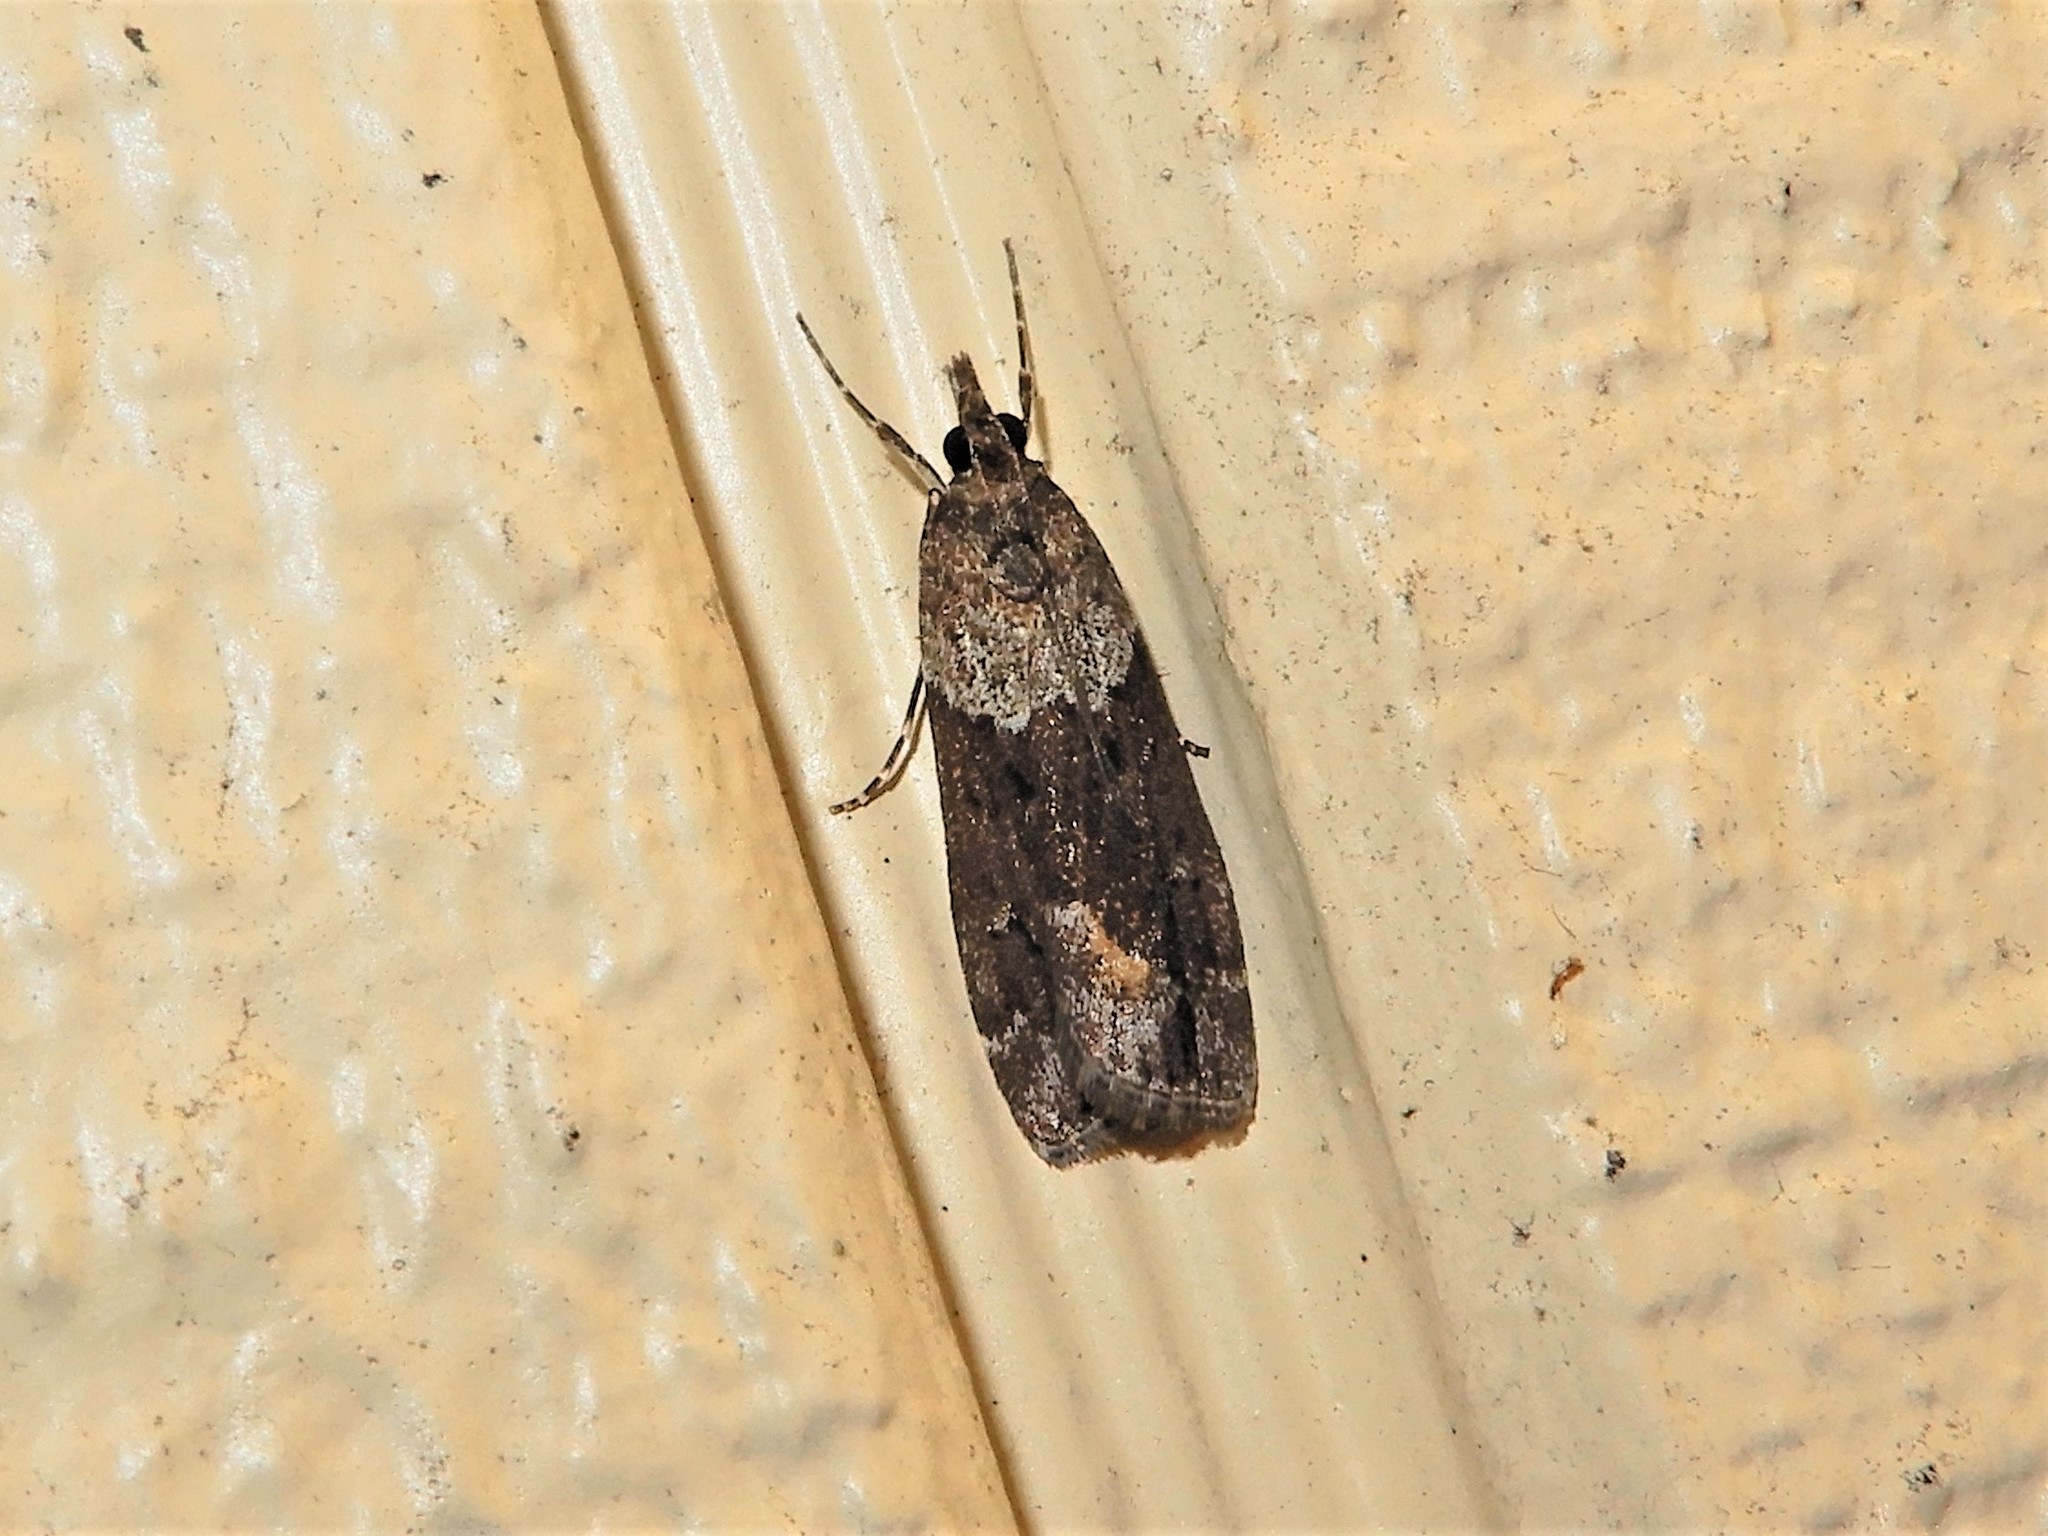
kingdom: Animalia
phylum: Arthropoda
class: Insecta
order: Lepidoptera
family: Crambidae
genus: Eudonia
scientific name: Eudonia submarginalis
